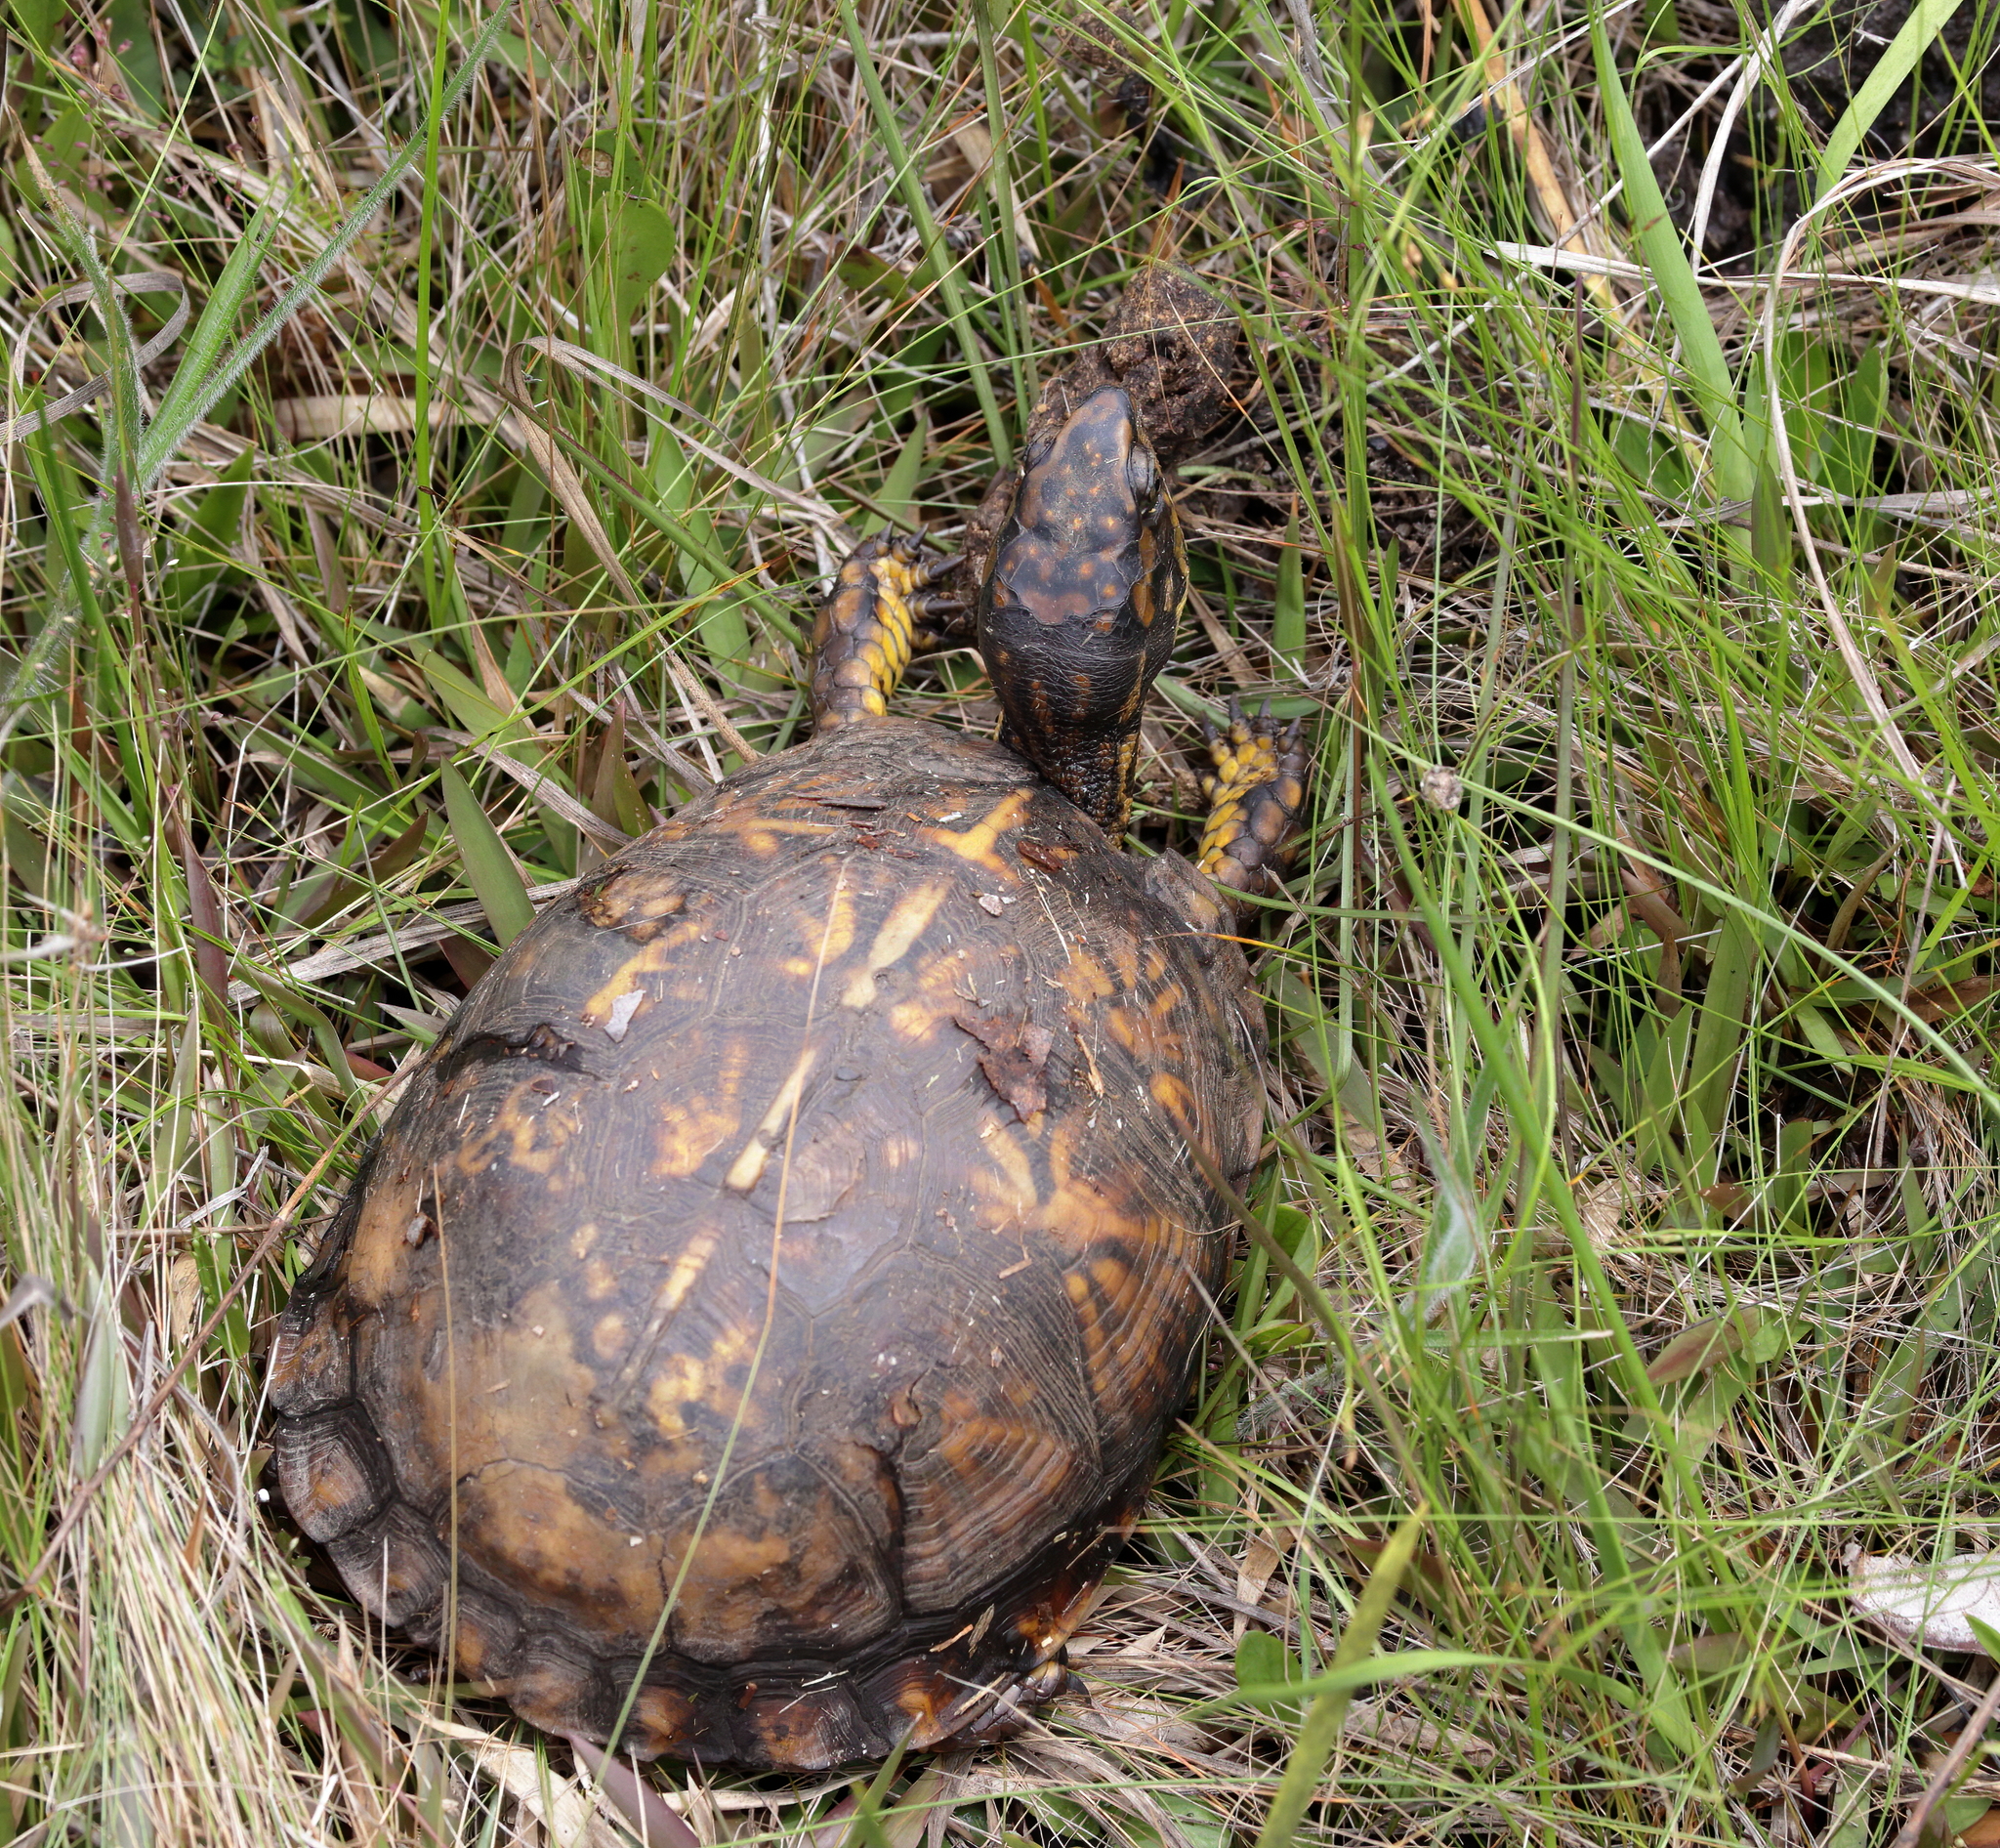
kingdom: Animalia
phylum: Chordata
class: Testudines
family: Emydidae
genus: Terrapene
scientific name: Terrapene carolina
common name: Common box turtle
